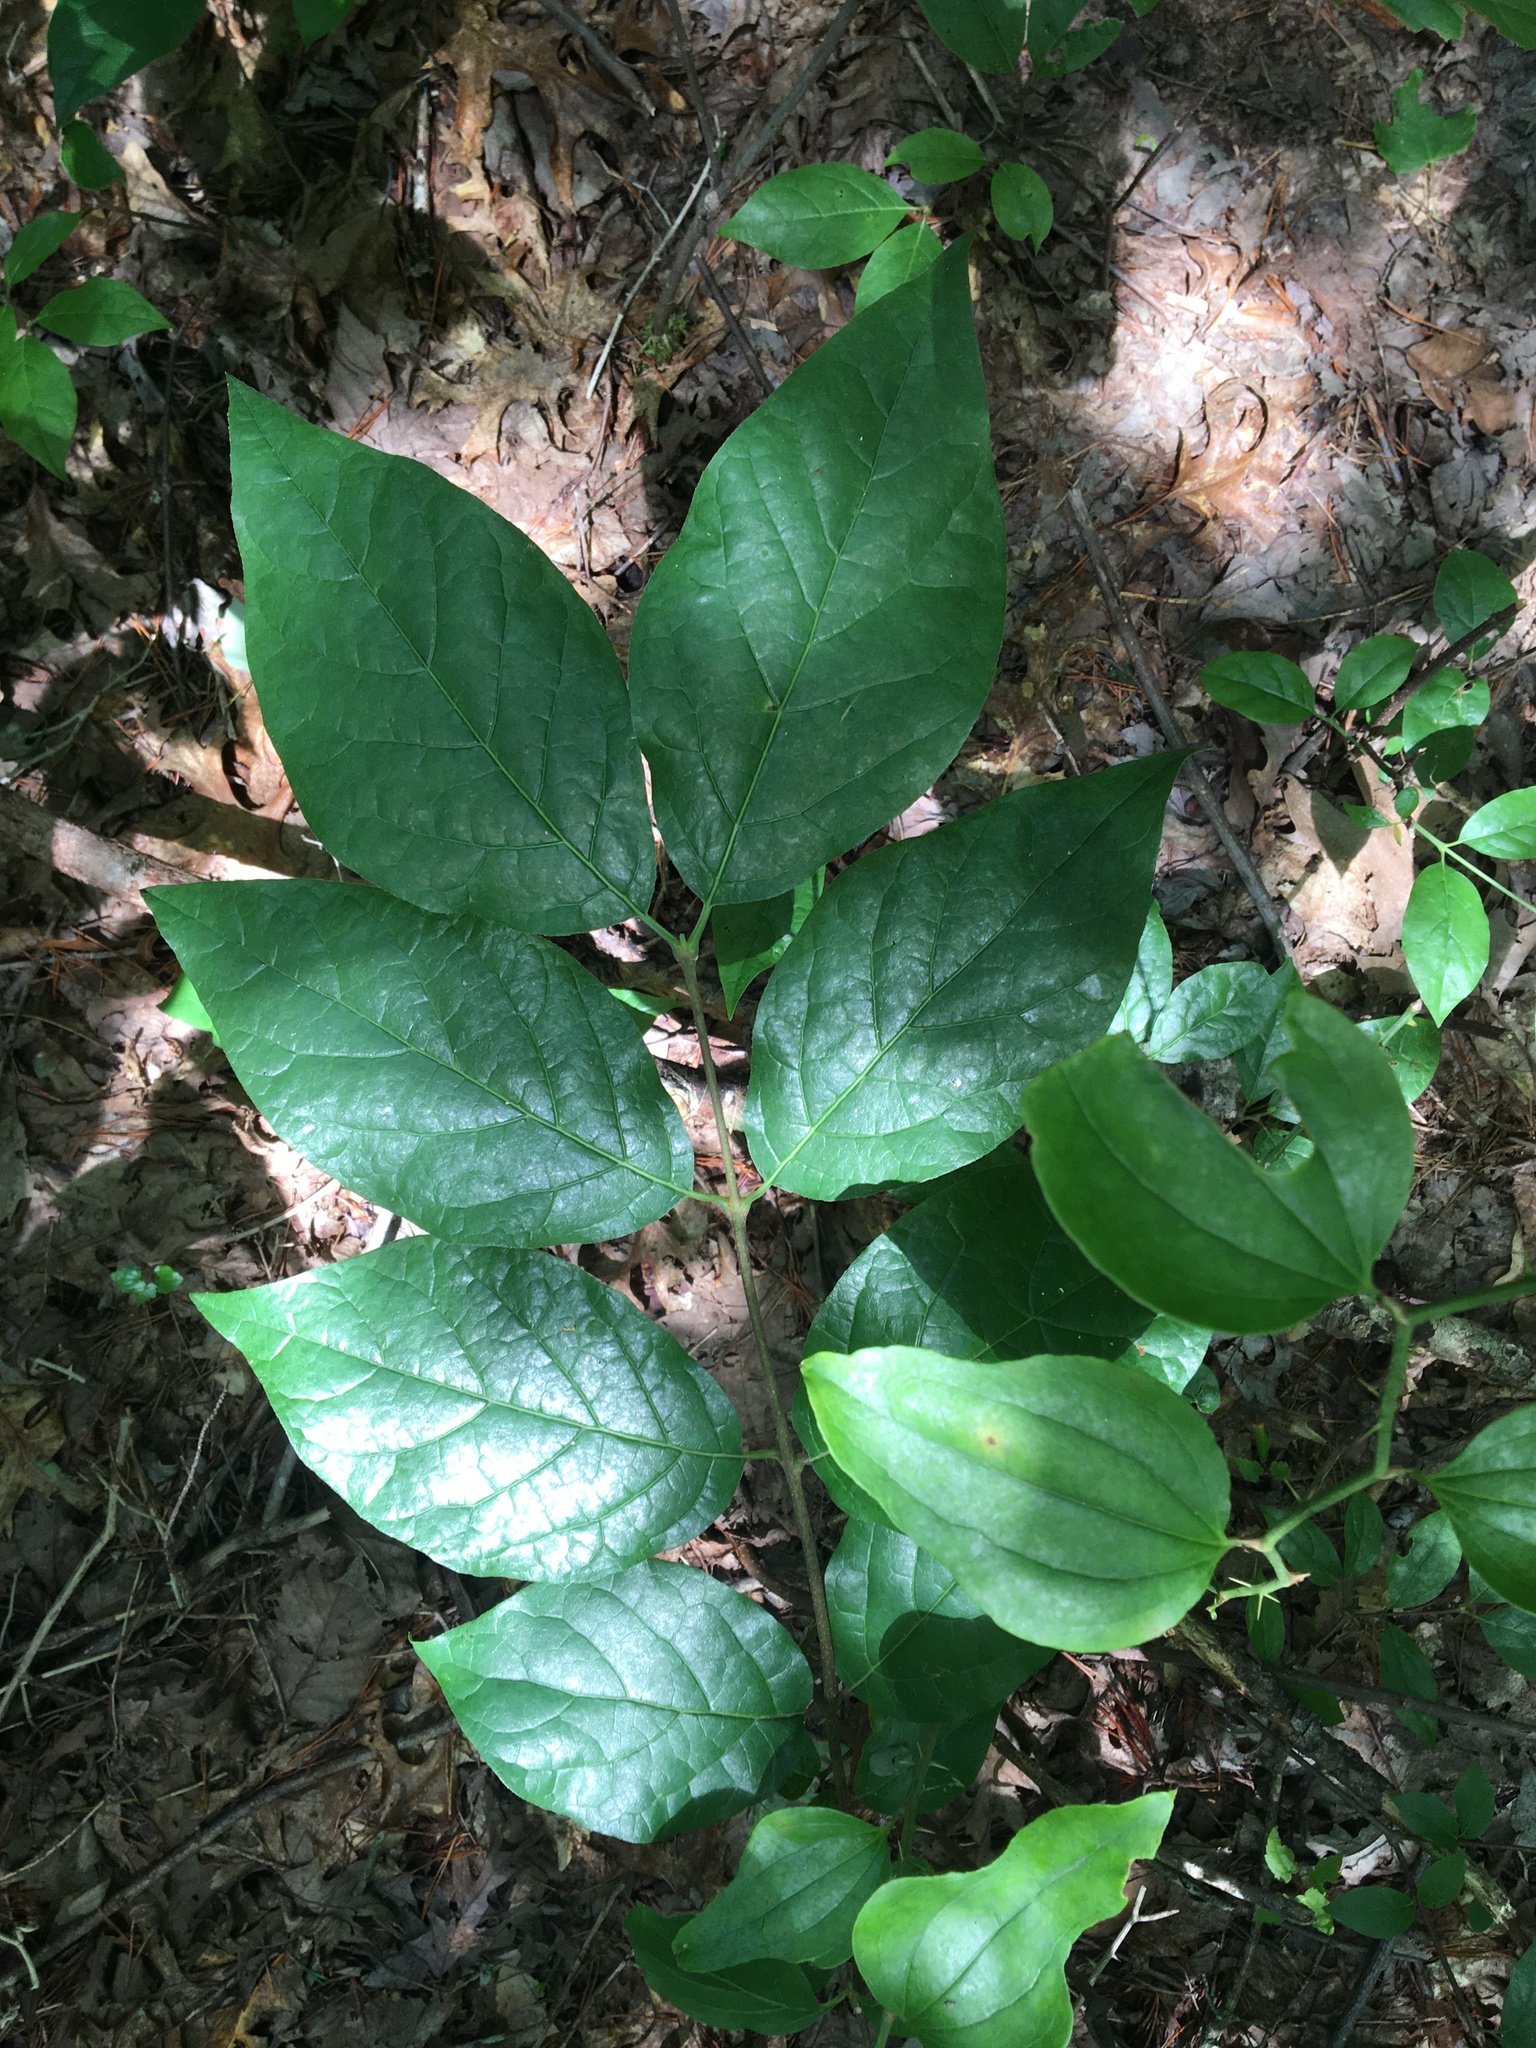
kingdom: Plantae
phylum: Tracheophyta
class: Magnoliopsida
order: Laurales
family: Calycanthaceae
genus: Calycanthus
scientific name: Calycanthus floridus
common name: Carolina-allspice
